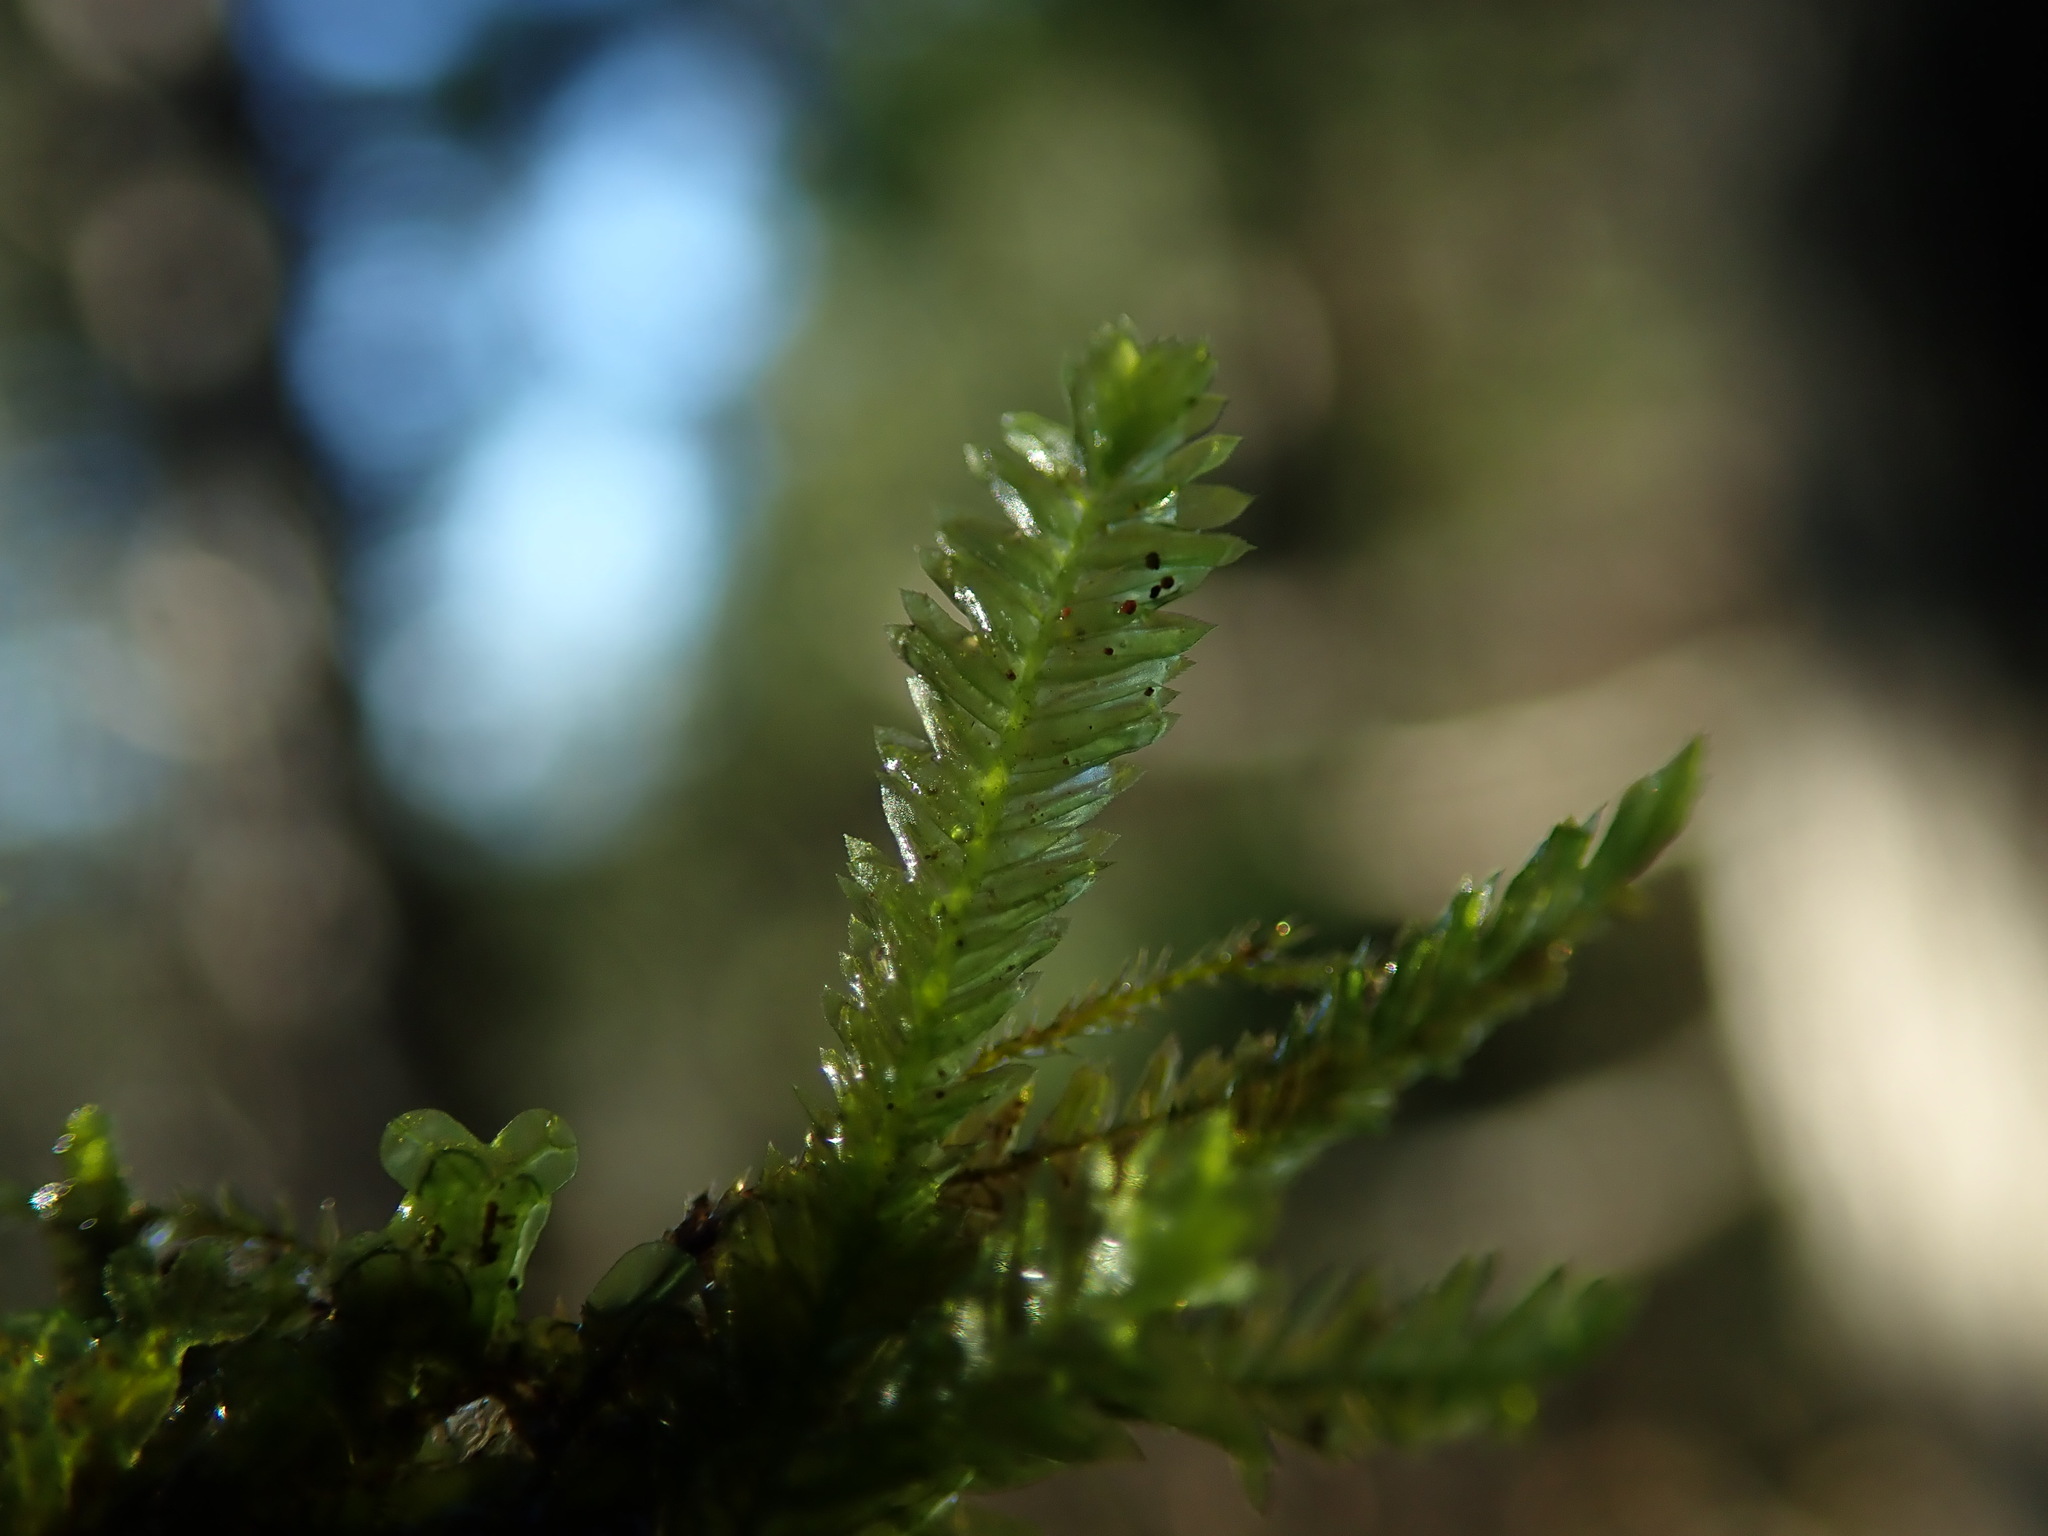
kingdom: Plantae
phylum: Bryophyta
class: Bryopsida
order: Hypnales
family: Neckeraceae
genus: Dannorrisia
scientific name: Dannorrisia bigelovii
